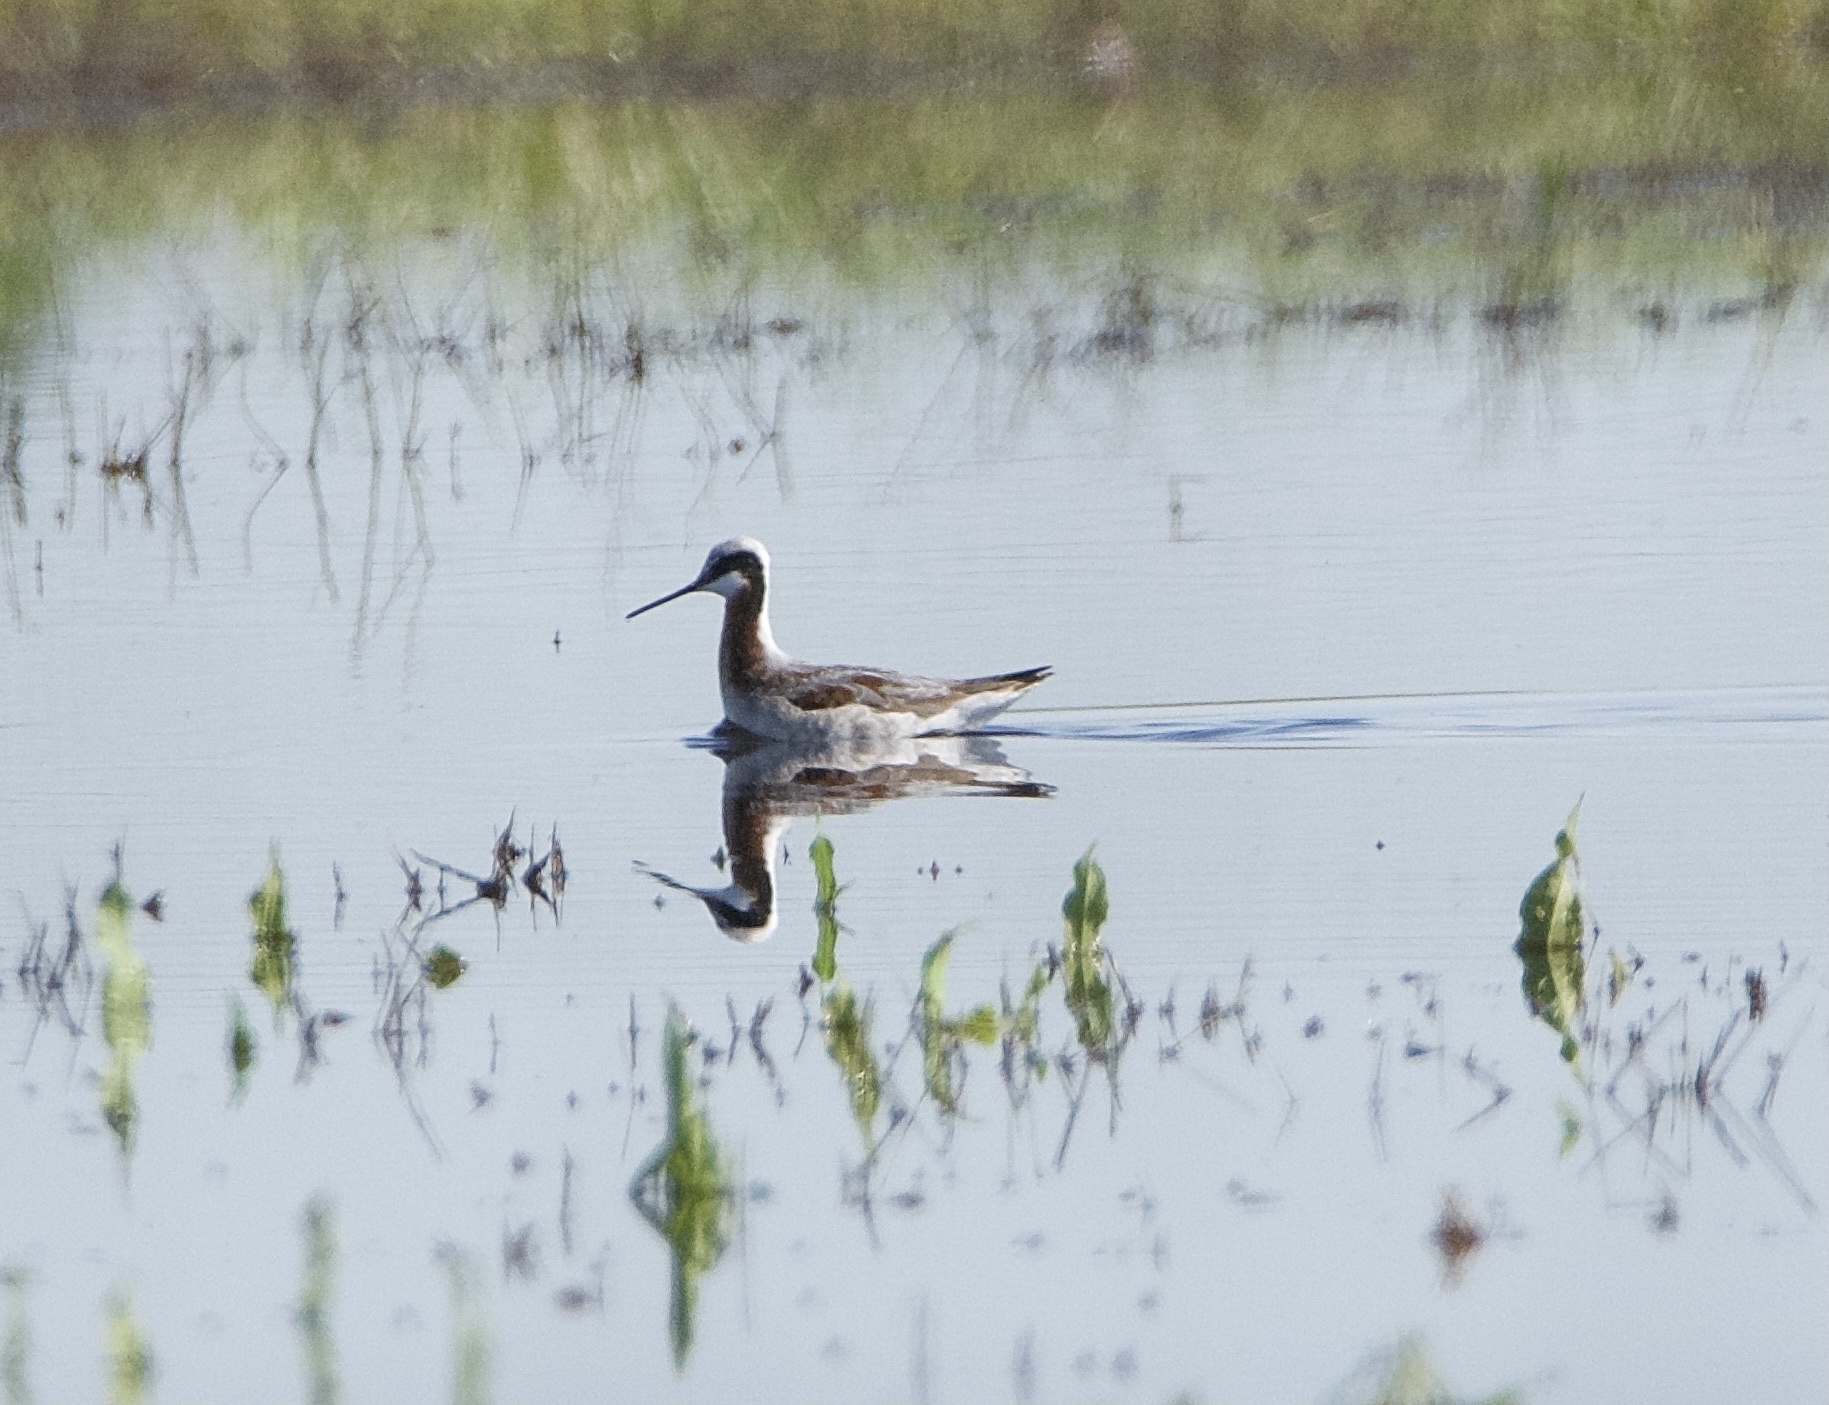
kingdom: Animalia
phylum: Chordata
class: Aves
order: Charadriiformes
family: Scolopacidae
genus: Phalaropus
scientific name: Phalaropus tricolor
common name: Wilson's phalarope
